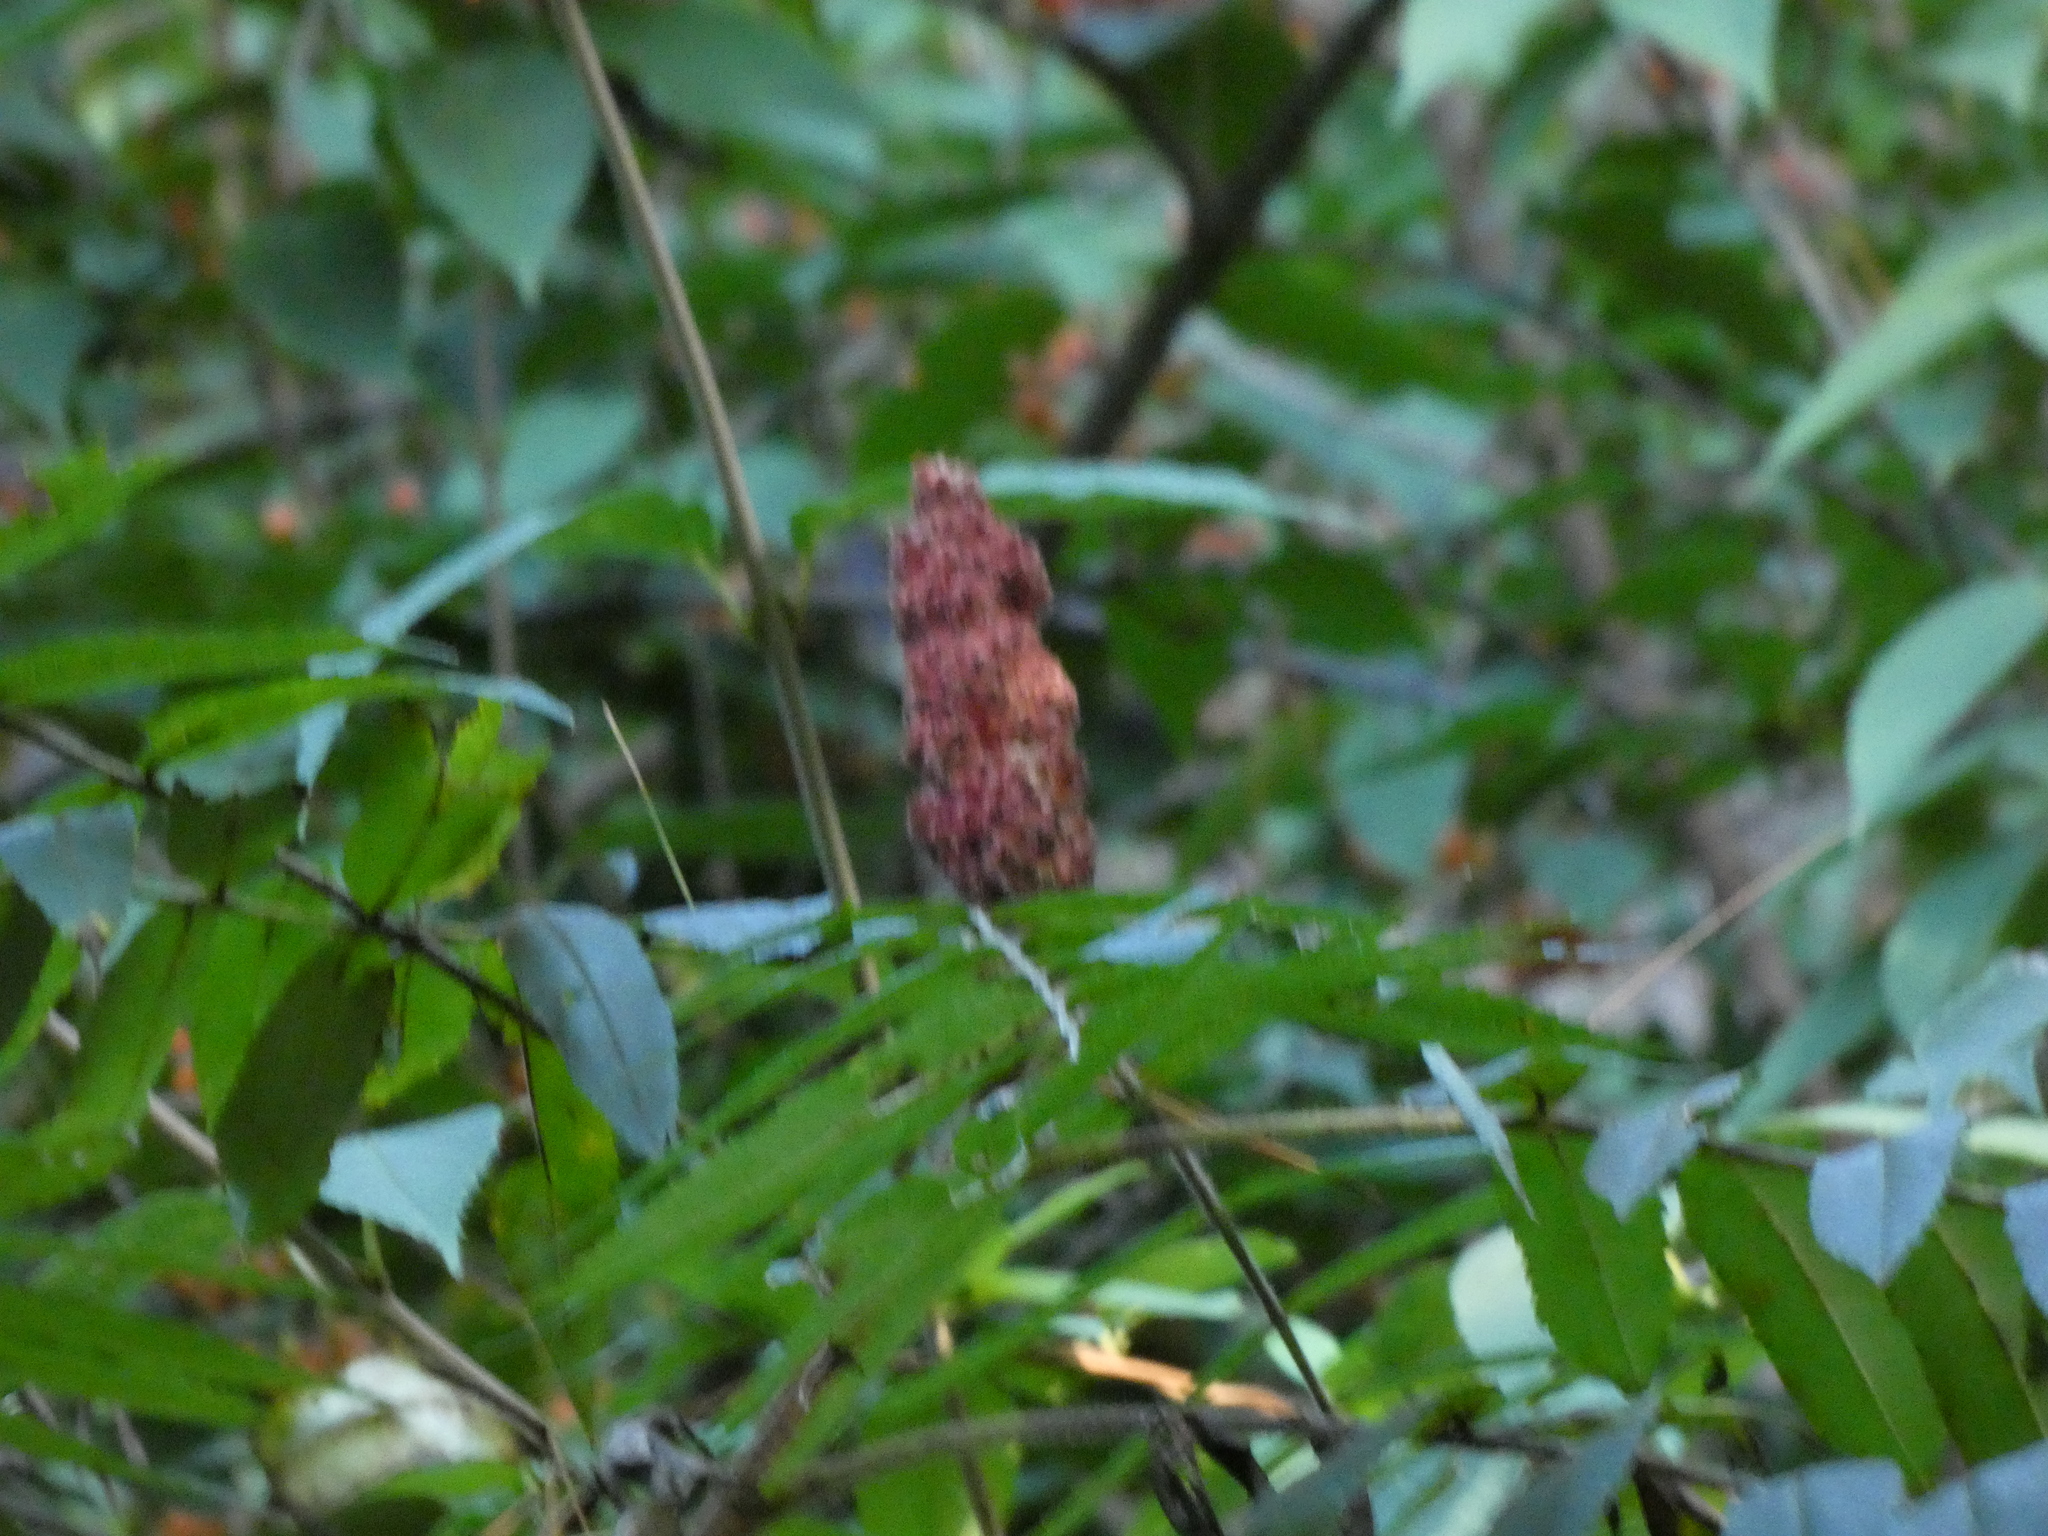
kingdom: Plantae
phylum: Tracheophyta
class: Magnoliopsida
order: Sapindales
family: Anacardiaceae
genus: Rhus
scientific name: Rhus typhina
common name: Staghorn sumac
